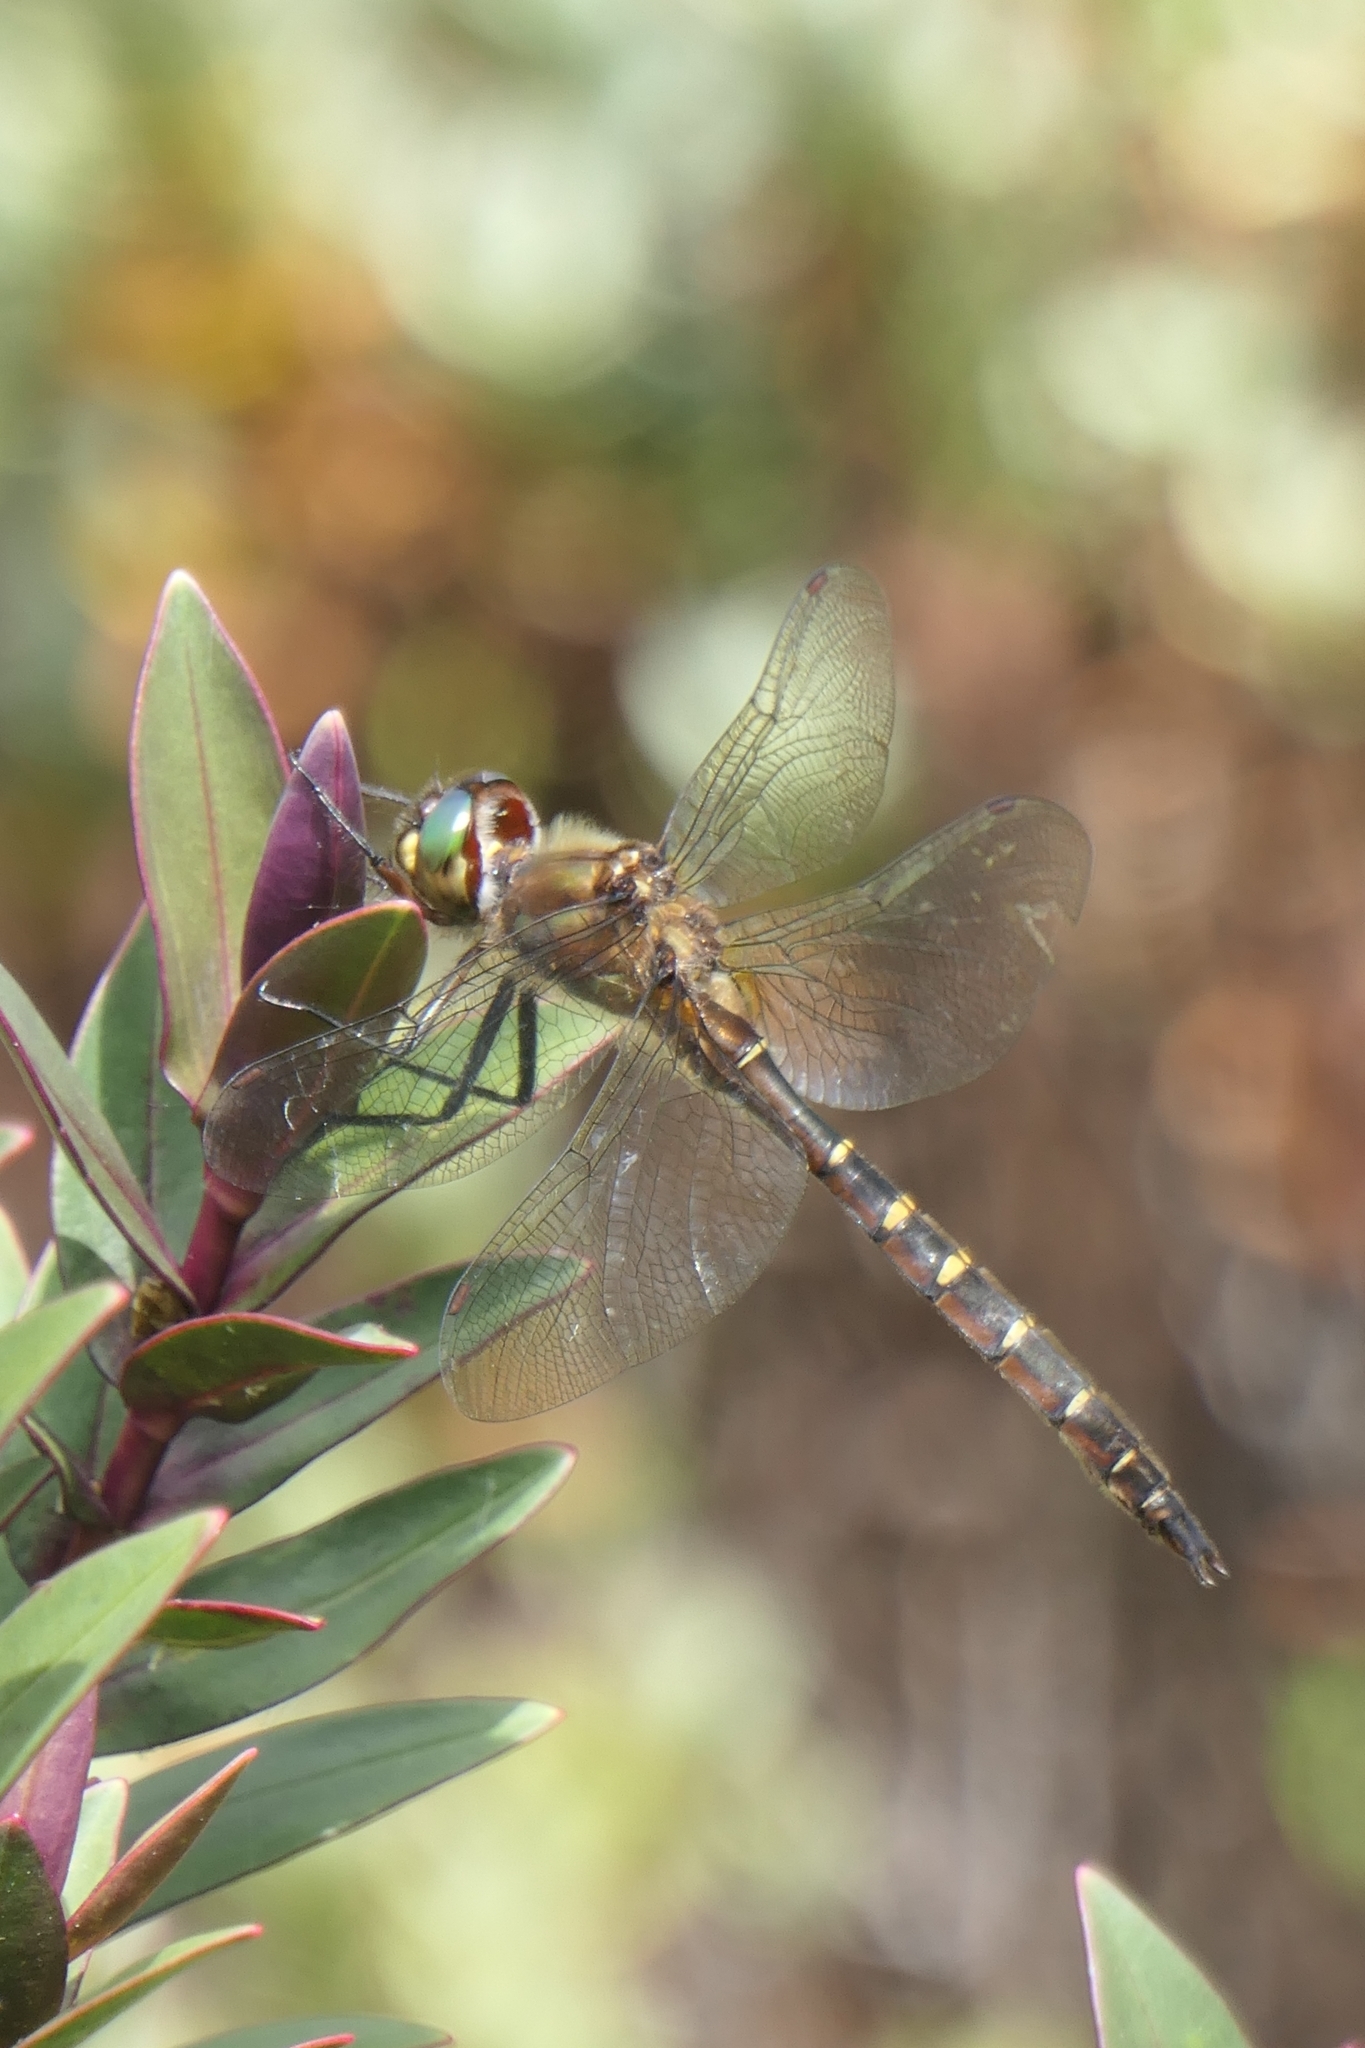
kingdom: Animalia
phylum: Arthropoda
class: Insecta
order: Odonata
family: Corduliidae
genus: Procordulia
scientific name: Procordulia smithii
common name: Ranger dragonfly
